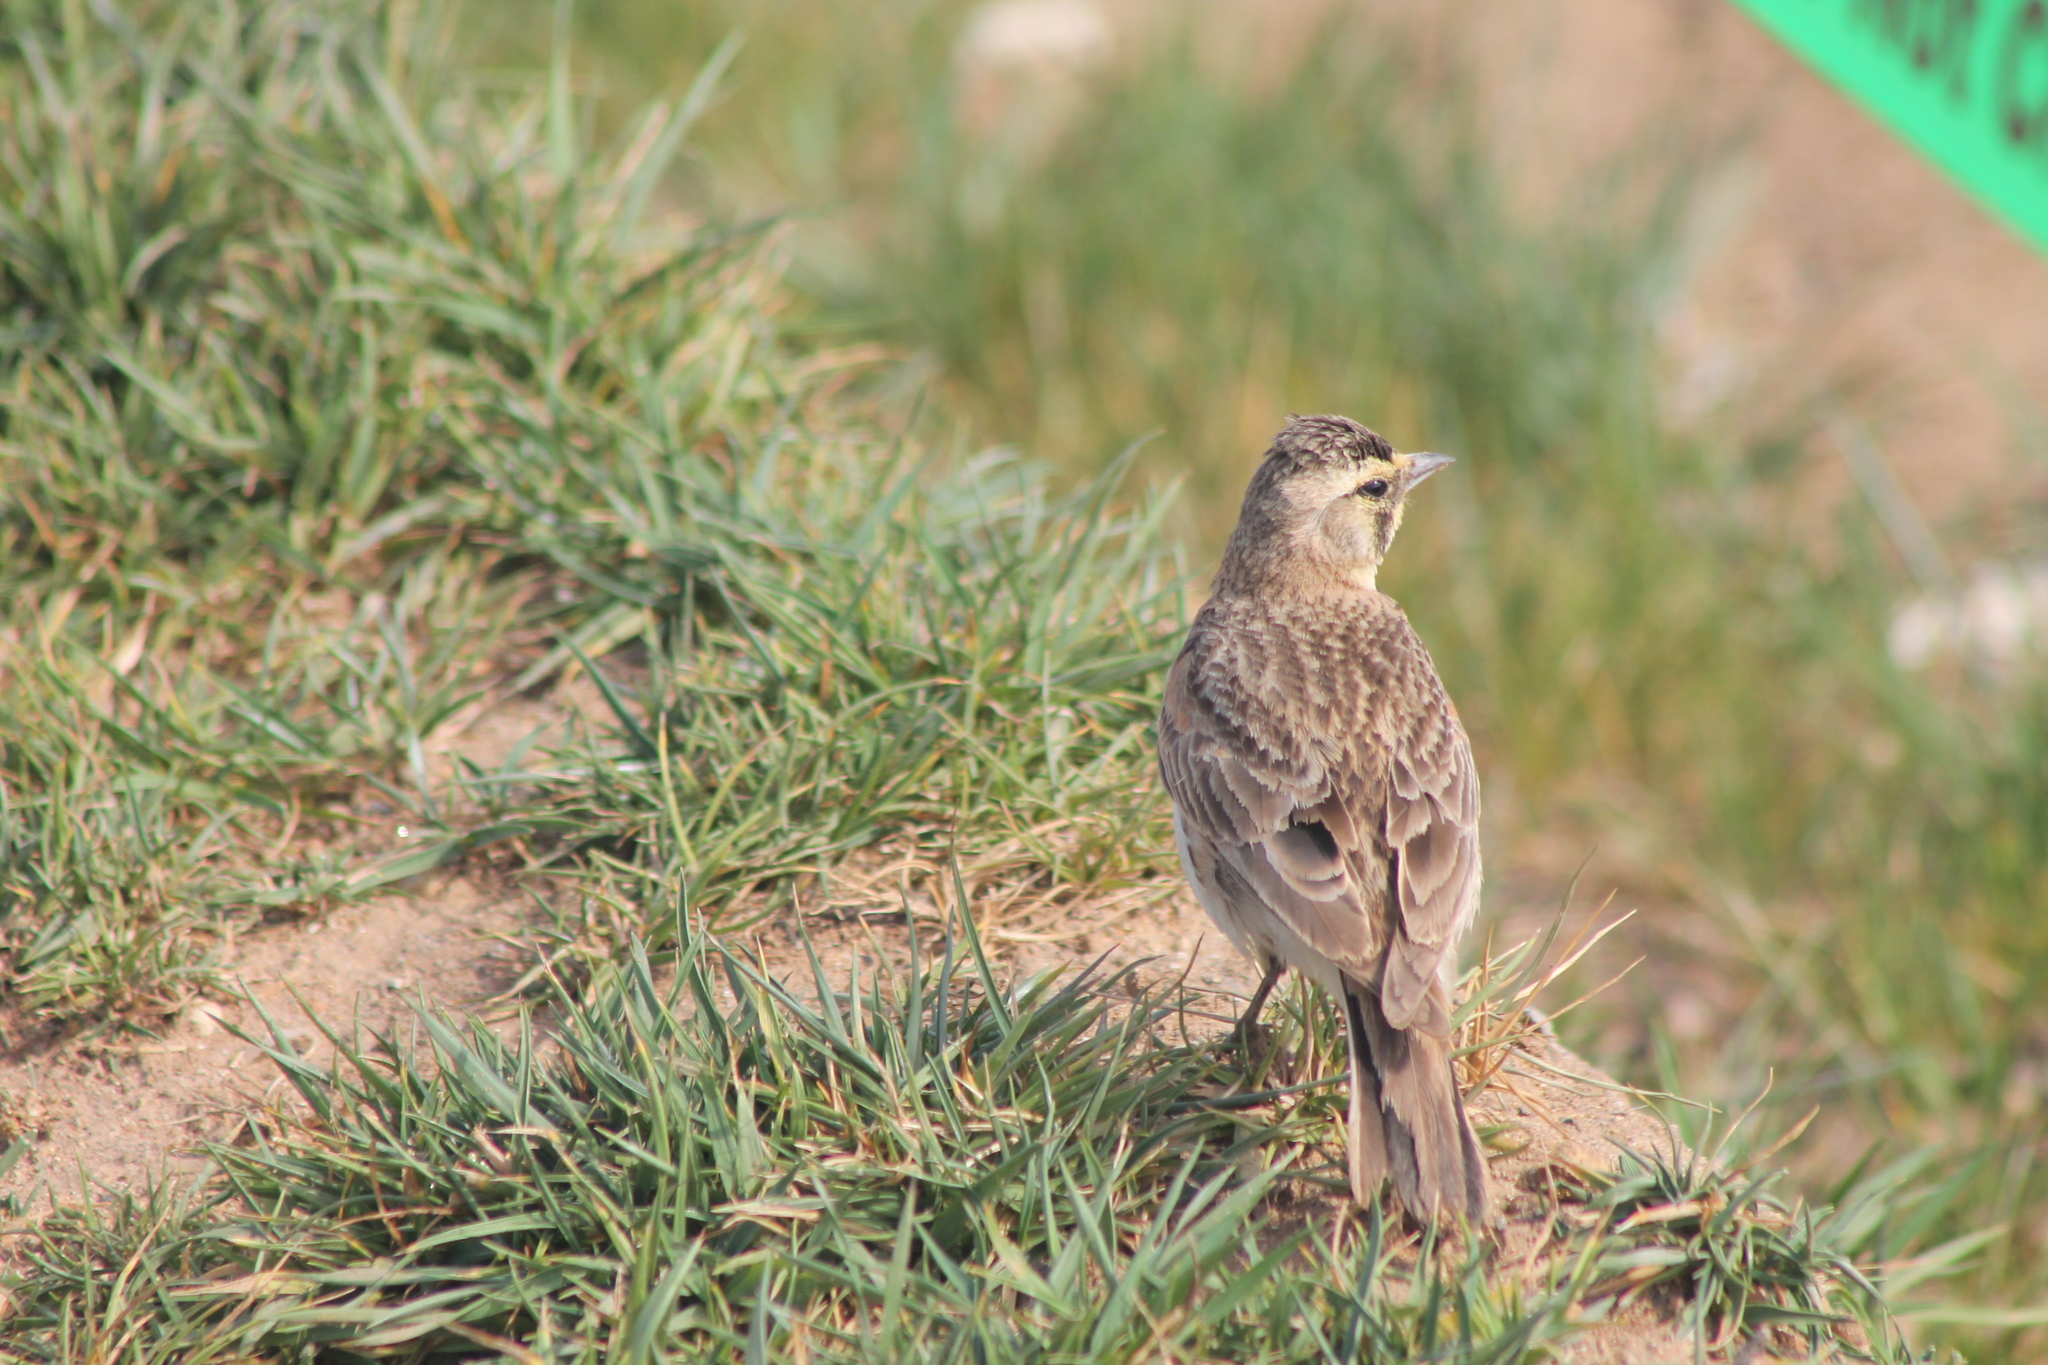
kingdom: Animalia
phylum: Chordata
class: Aves
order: Passeriformes
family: Alaudidae
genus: Eremophila
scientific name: Eremophila alpestris
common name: Horned lark
